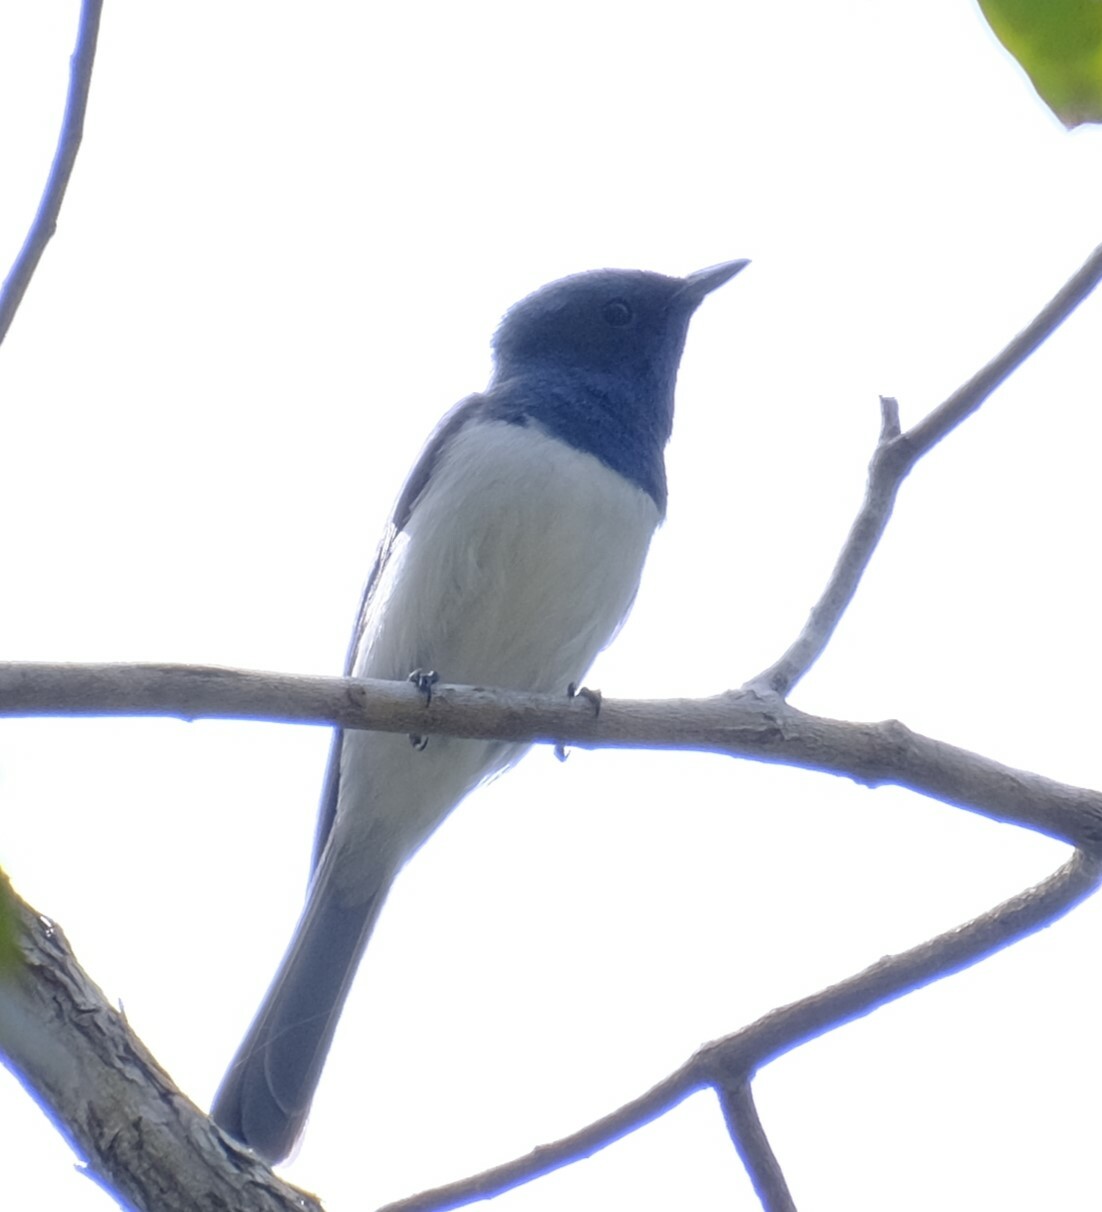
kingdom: Animalia
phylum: Chordata
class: Aves
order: Passeriformes
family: Monarchidae
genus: Myiagra
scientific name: Myiagra rubecula
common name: Leaden flycatcher
